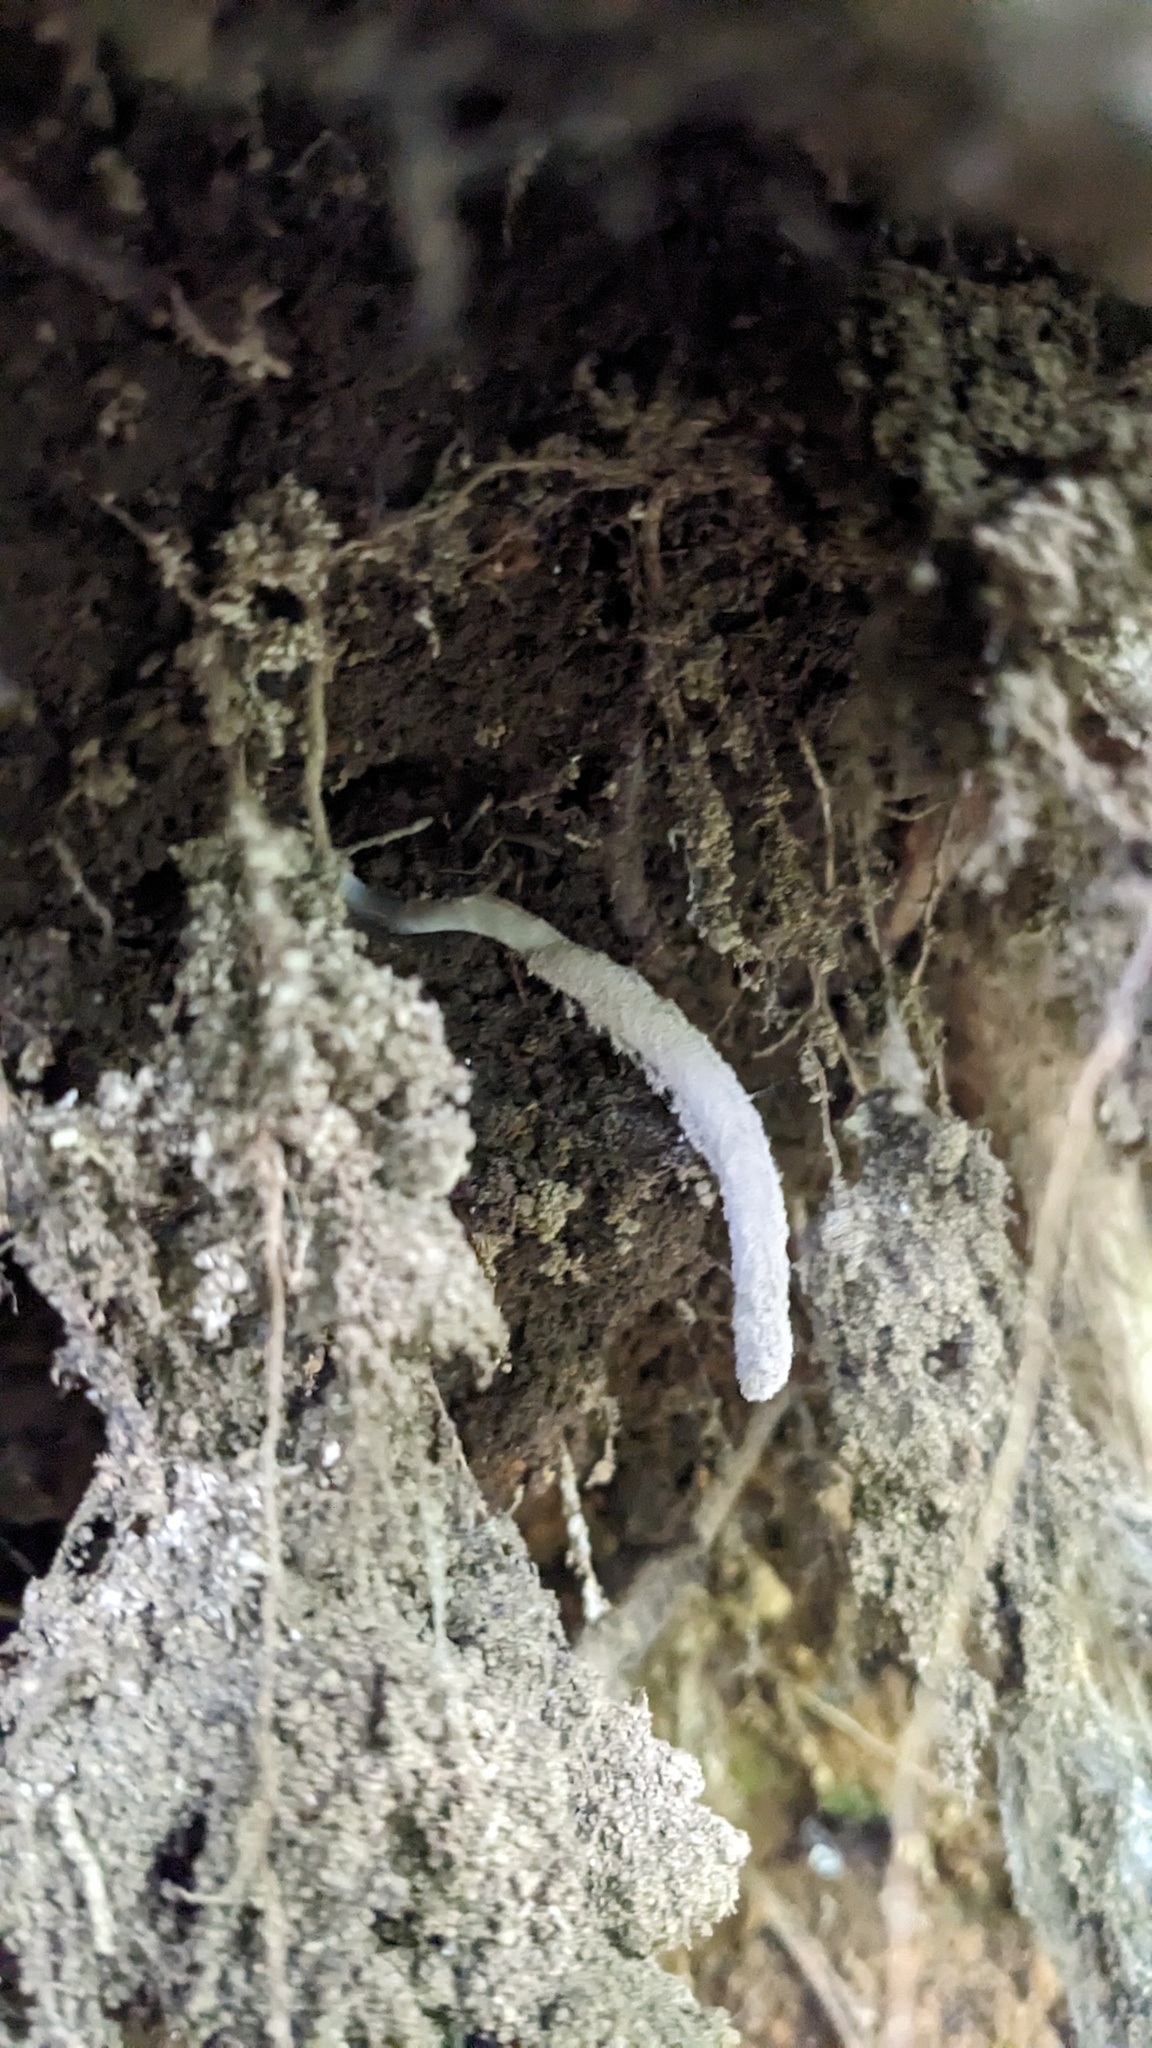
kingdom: Fungi
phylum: Ascomycota
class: Sordariomycetes
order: Hypocreales
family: Ophiocordycipitaceae
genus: Purpureocillium
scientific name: Purpureocillium atypicola
